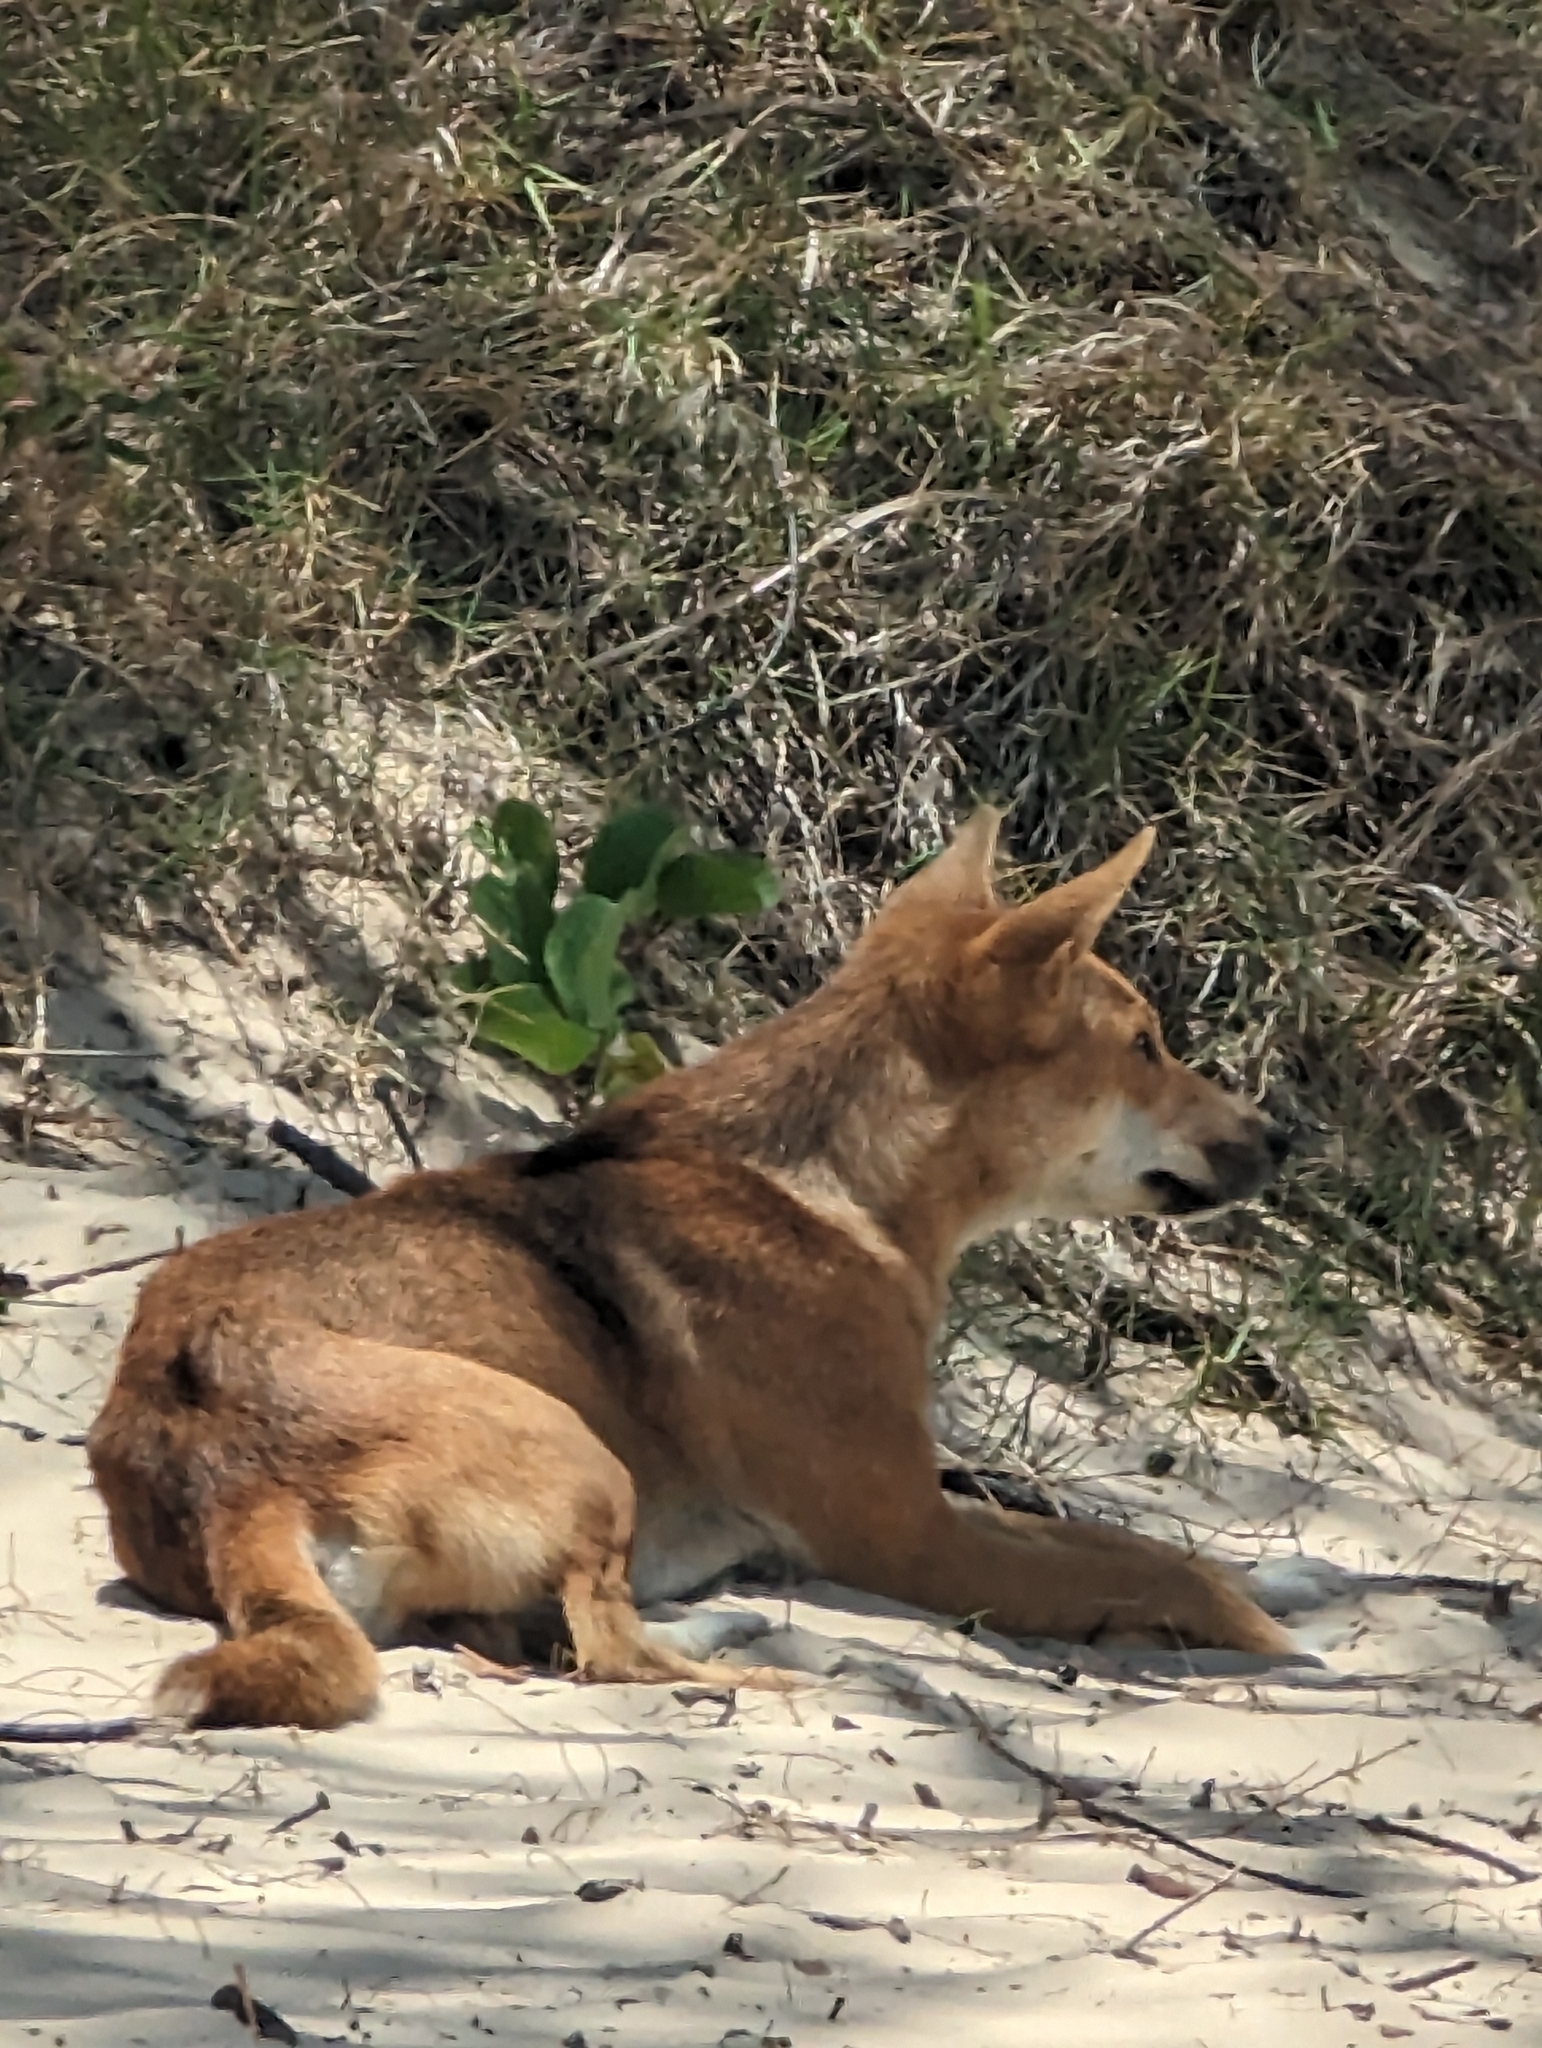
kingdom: Animalia
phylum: Chordata
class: Mammalia
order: Carnivora
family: Canidae
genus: Canis
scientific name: Canis lupus
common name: Gray wolf
